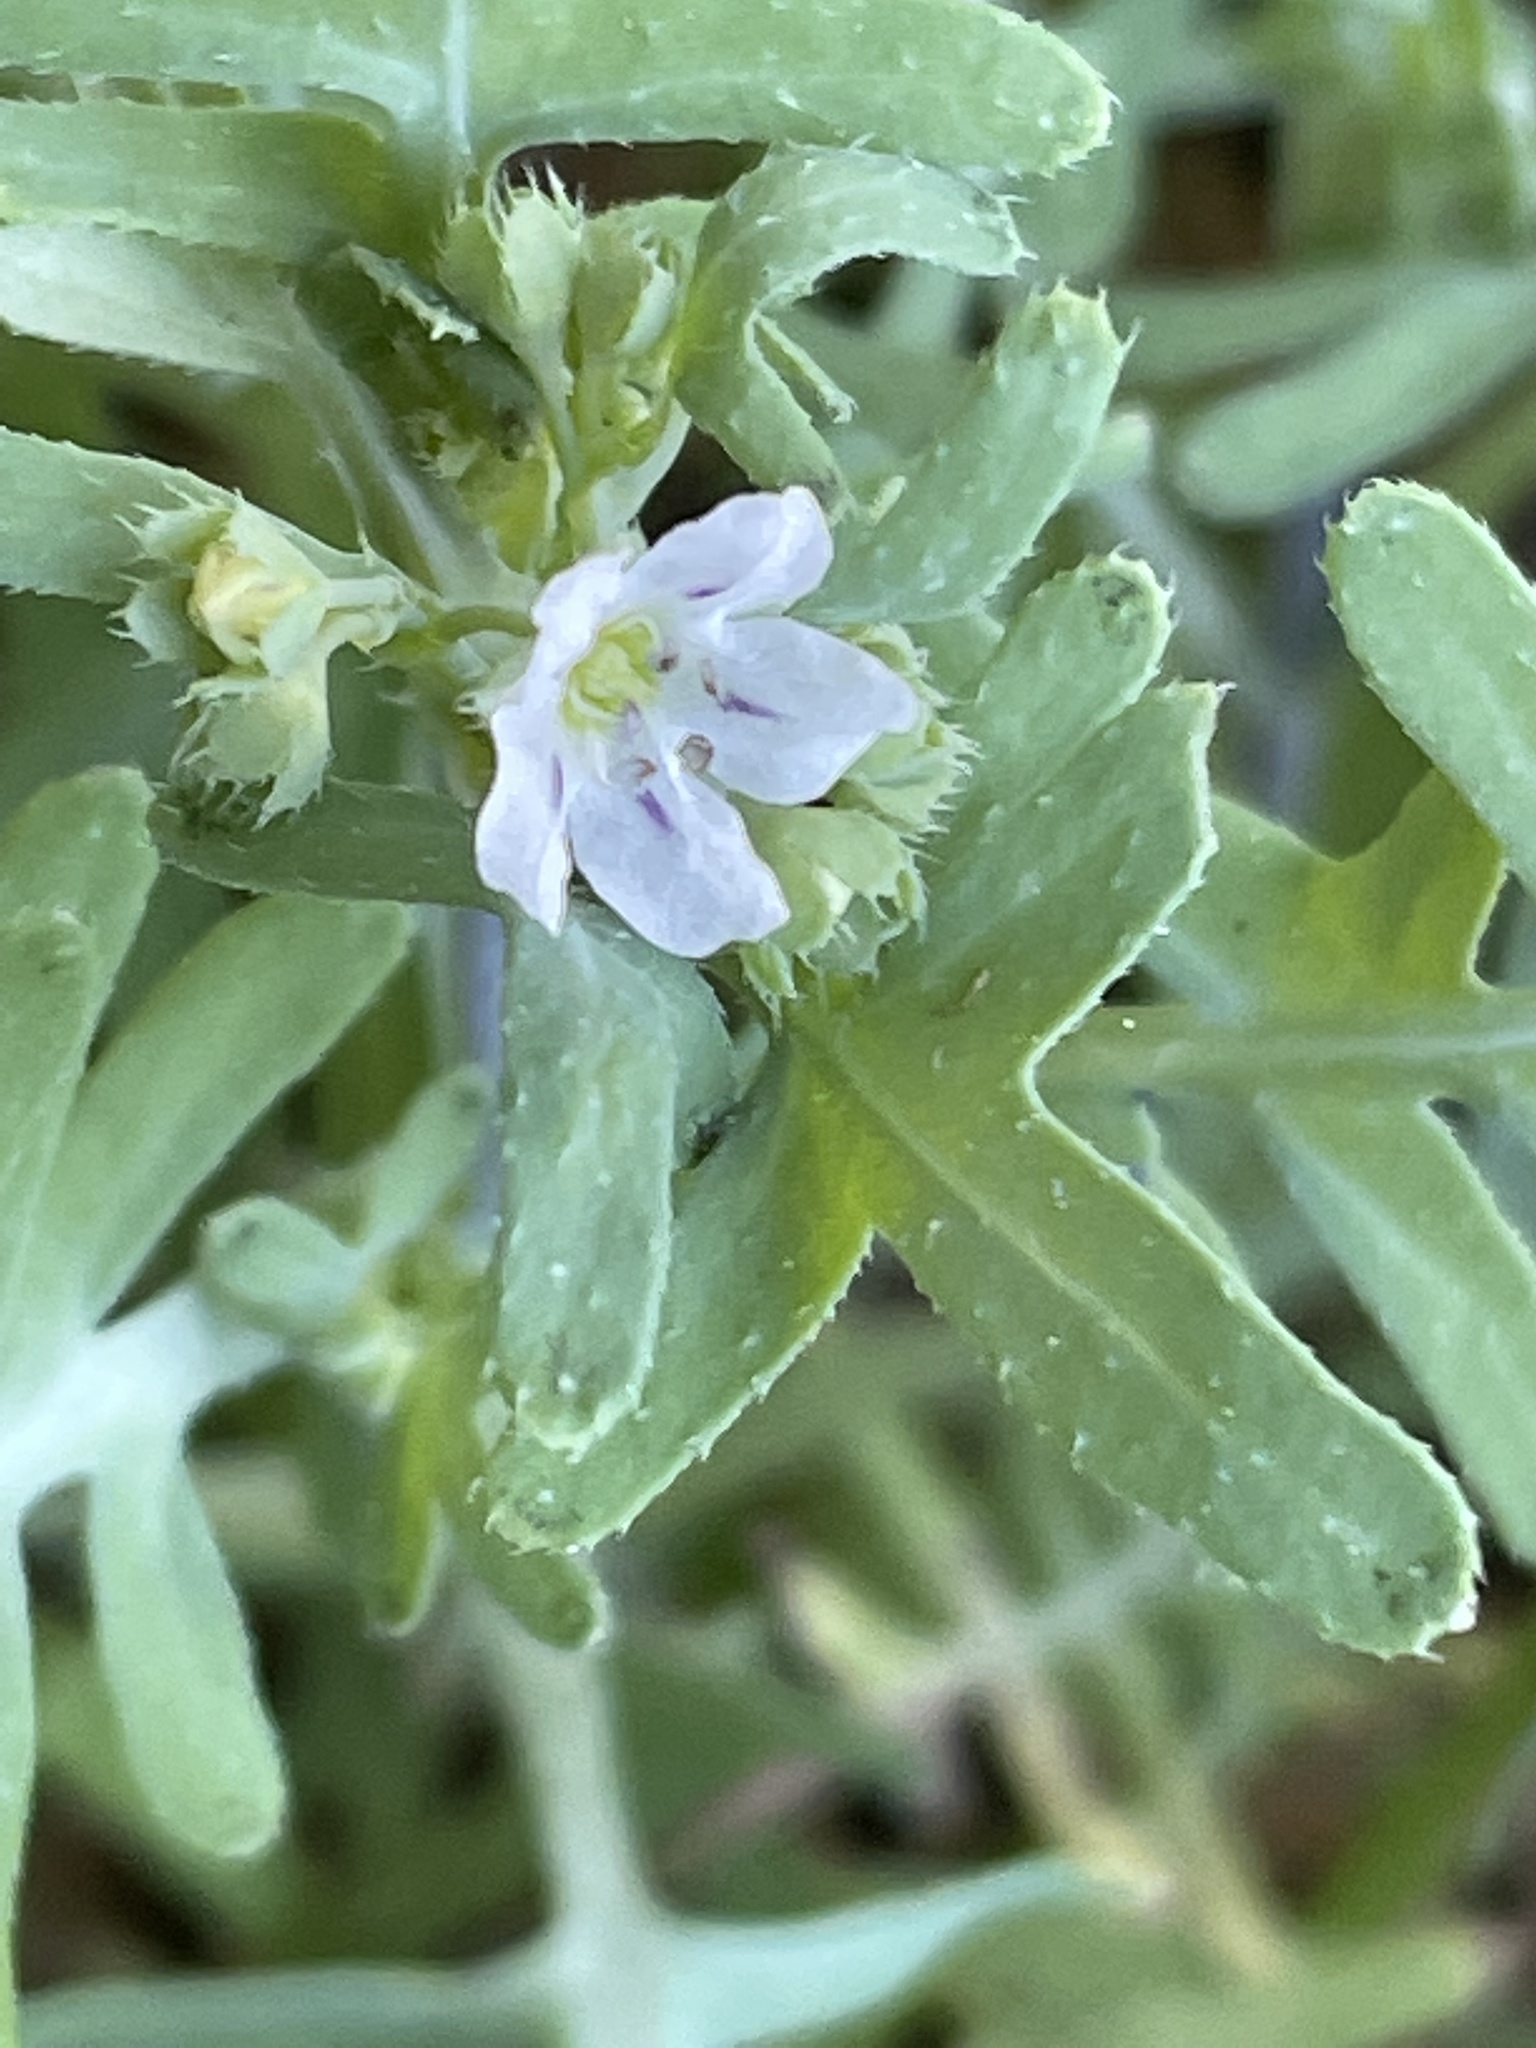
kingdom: Plantae
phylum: Tracheophyta
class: Magnoliopsida
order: Boraginales
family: Hydrophyllaceae
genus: Pholistoma
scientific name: Pholistoma membranaceum
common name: White fiesta-flower
